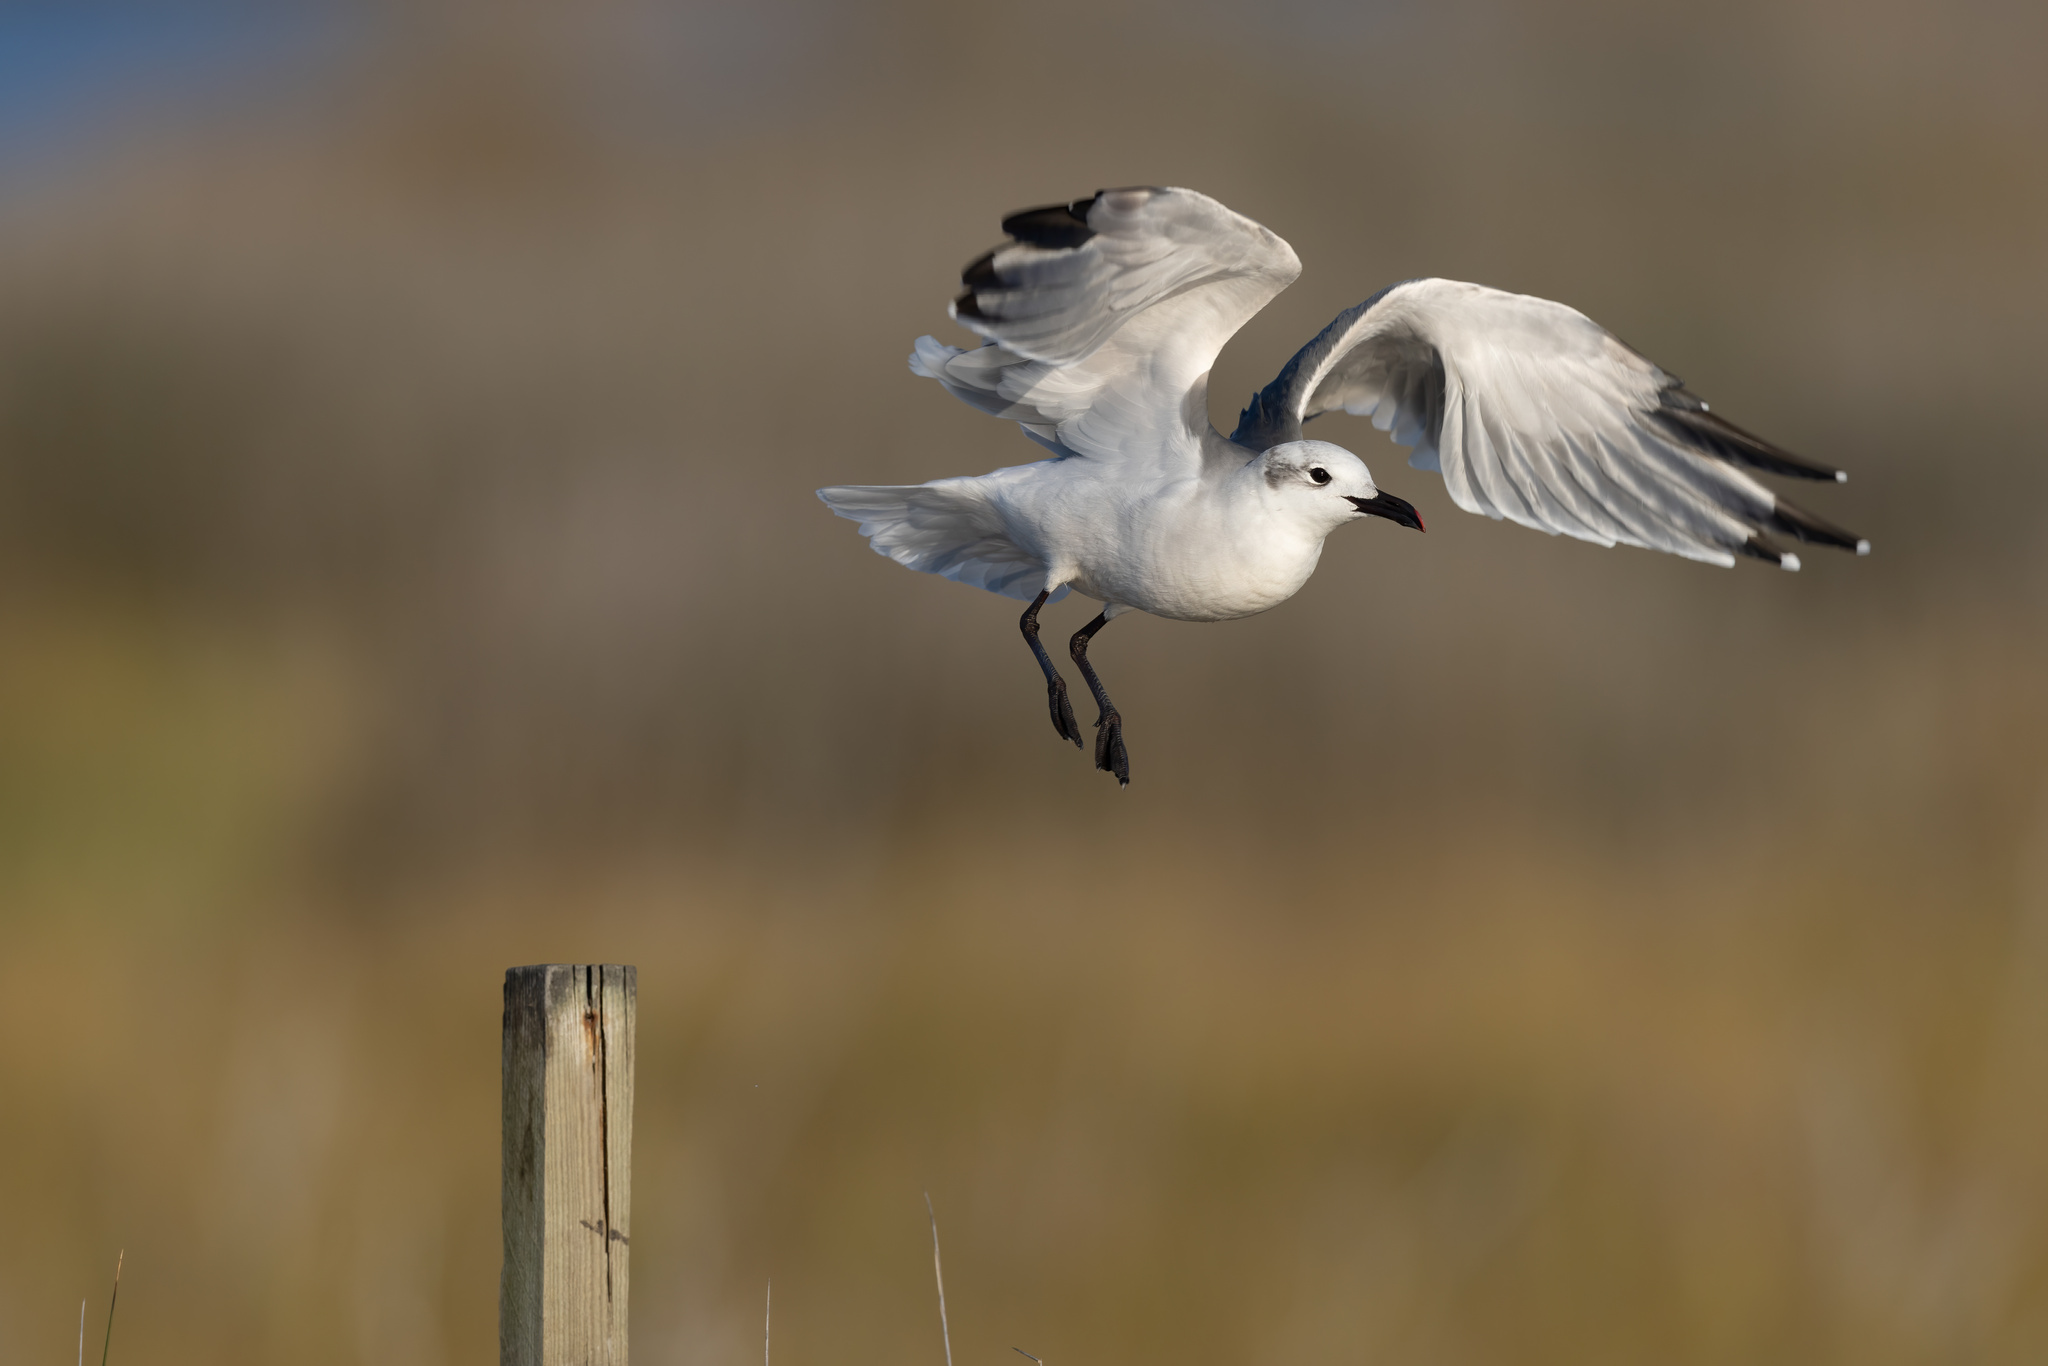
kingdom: Animalia
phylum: Chordata
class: Aves
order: Charadriiformes
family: Laridae
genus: Leucophaeus
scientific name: Leucophaeus atricilla
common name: Laughing gull
